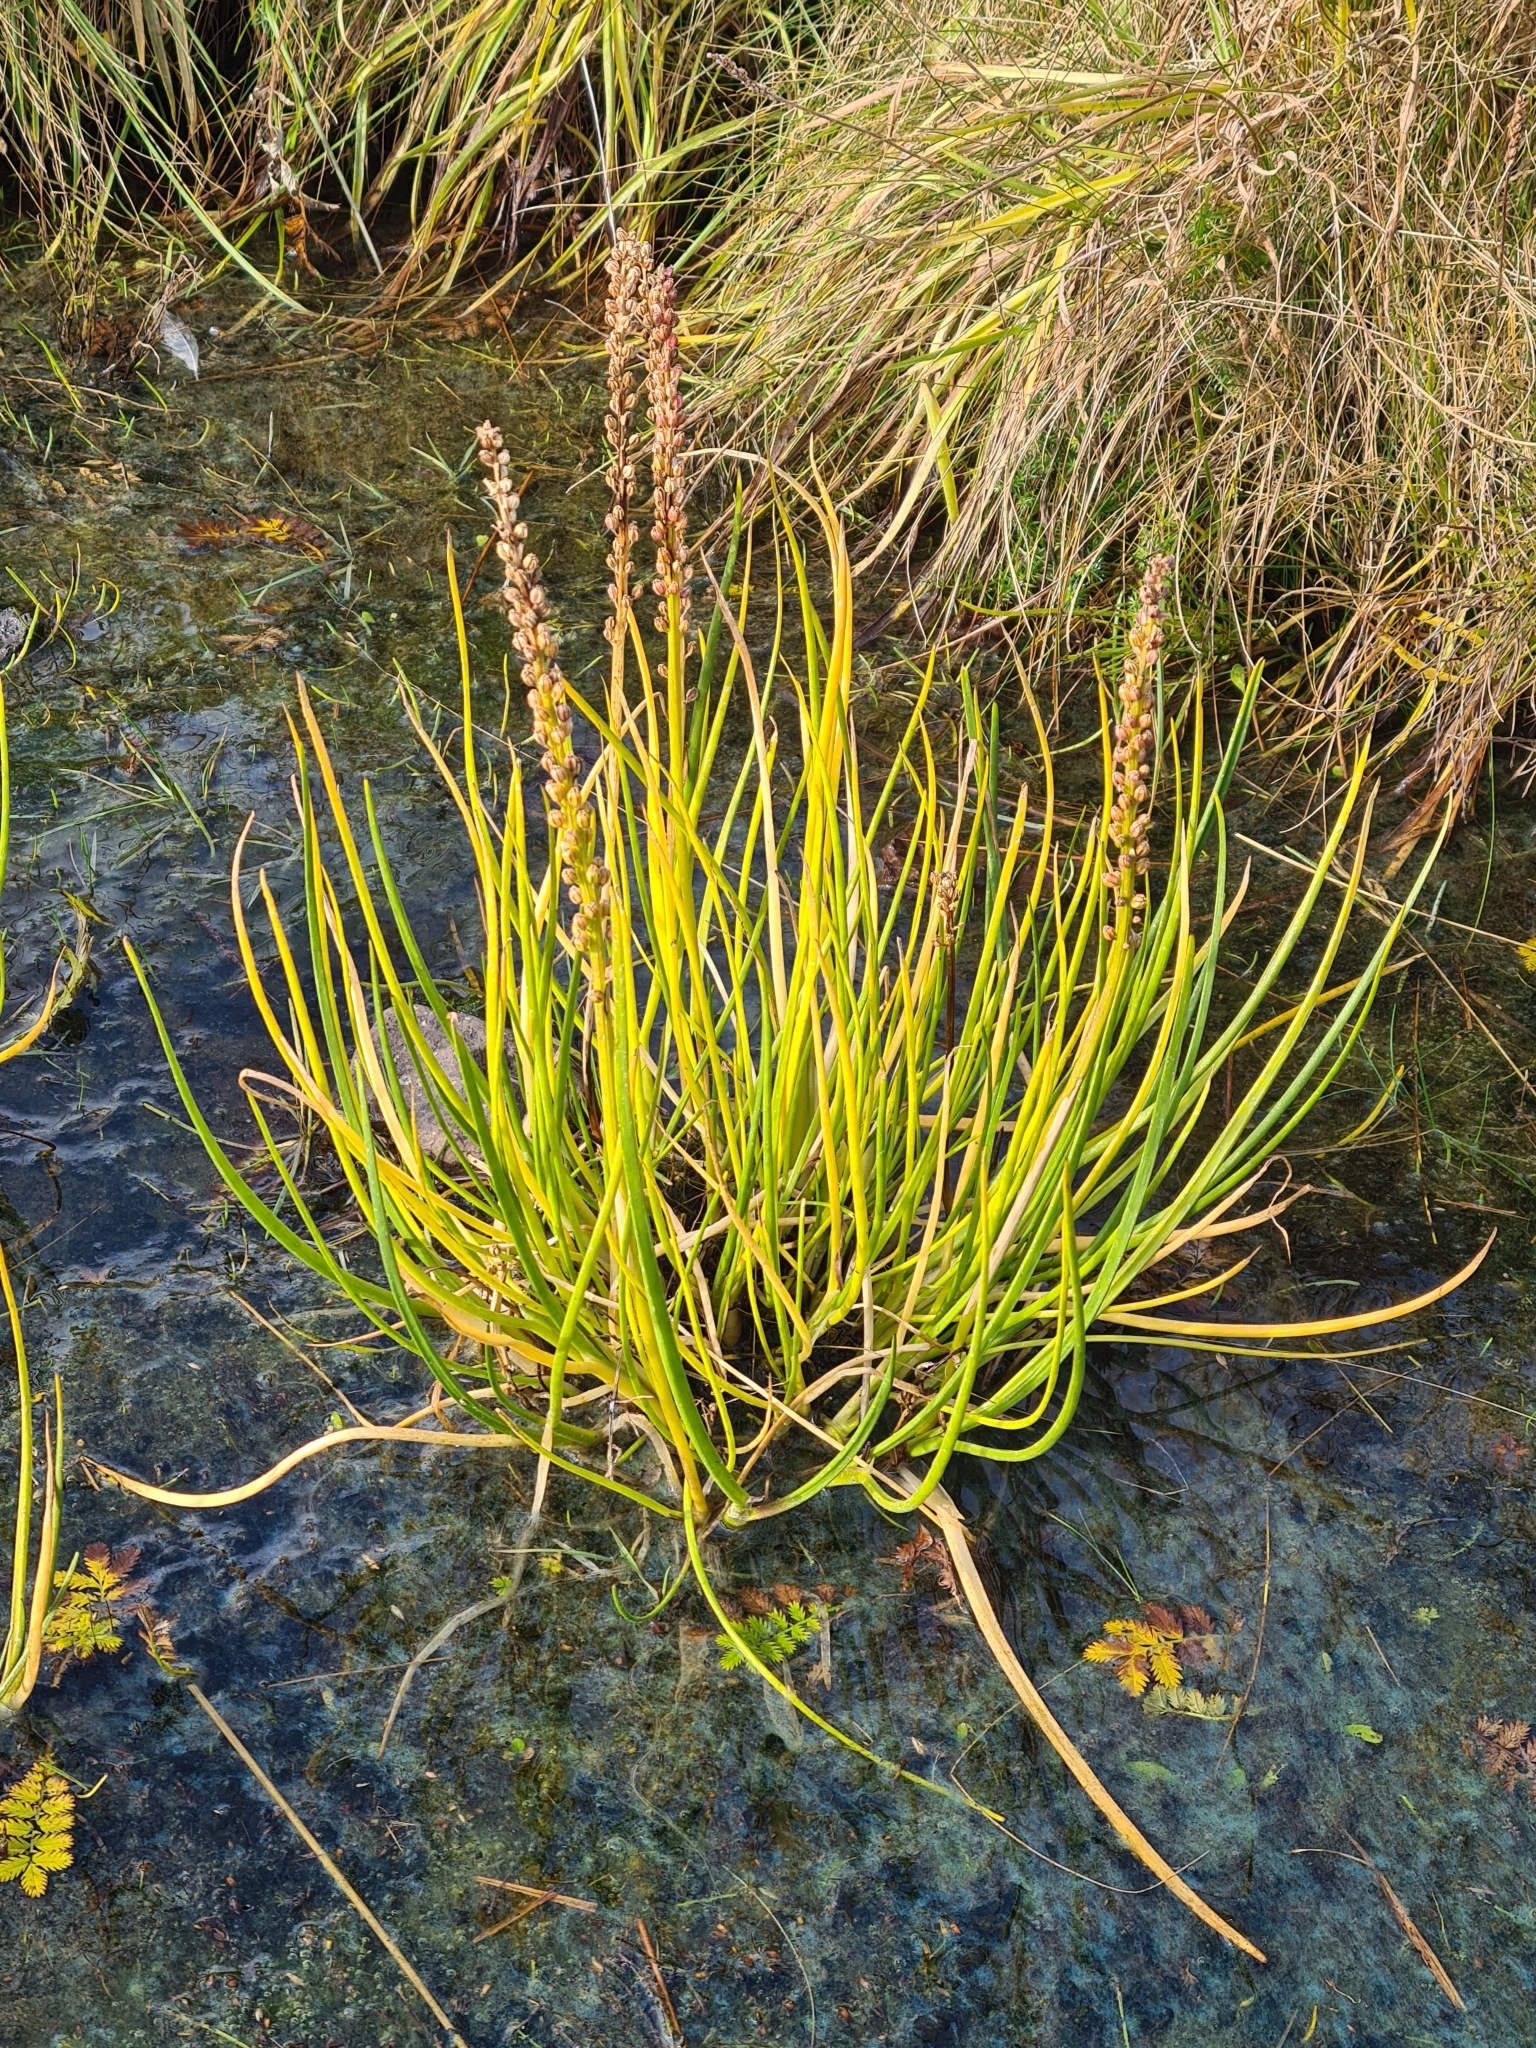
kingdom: Plantae
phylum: Tracheophyta
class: Liliopsida
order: Alismatales
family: Juncaginaceae
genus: Triglochin
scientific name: Triglochin maritima
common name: Sea arrowgrass
